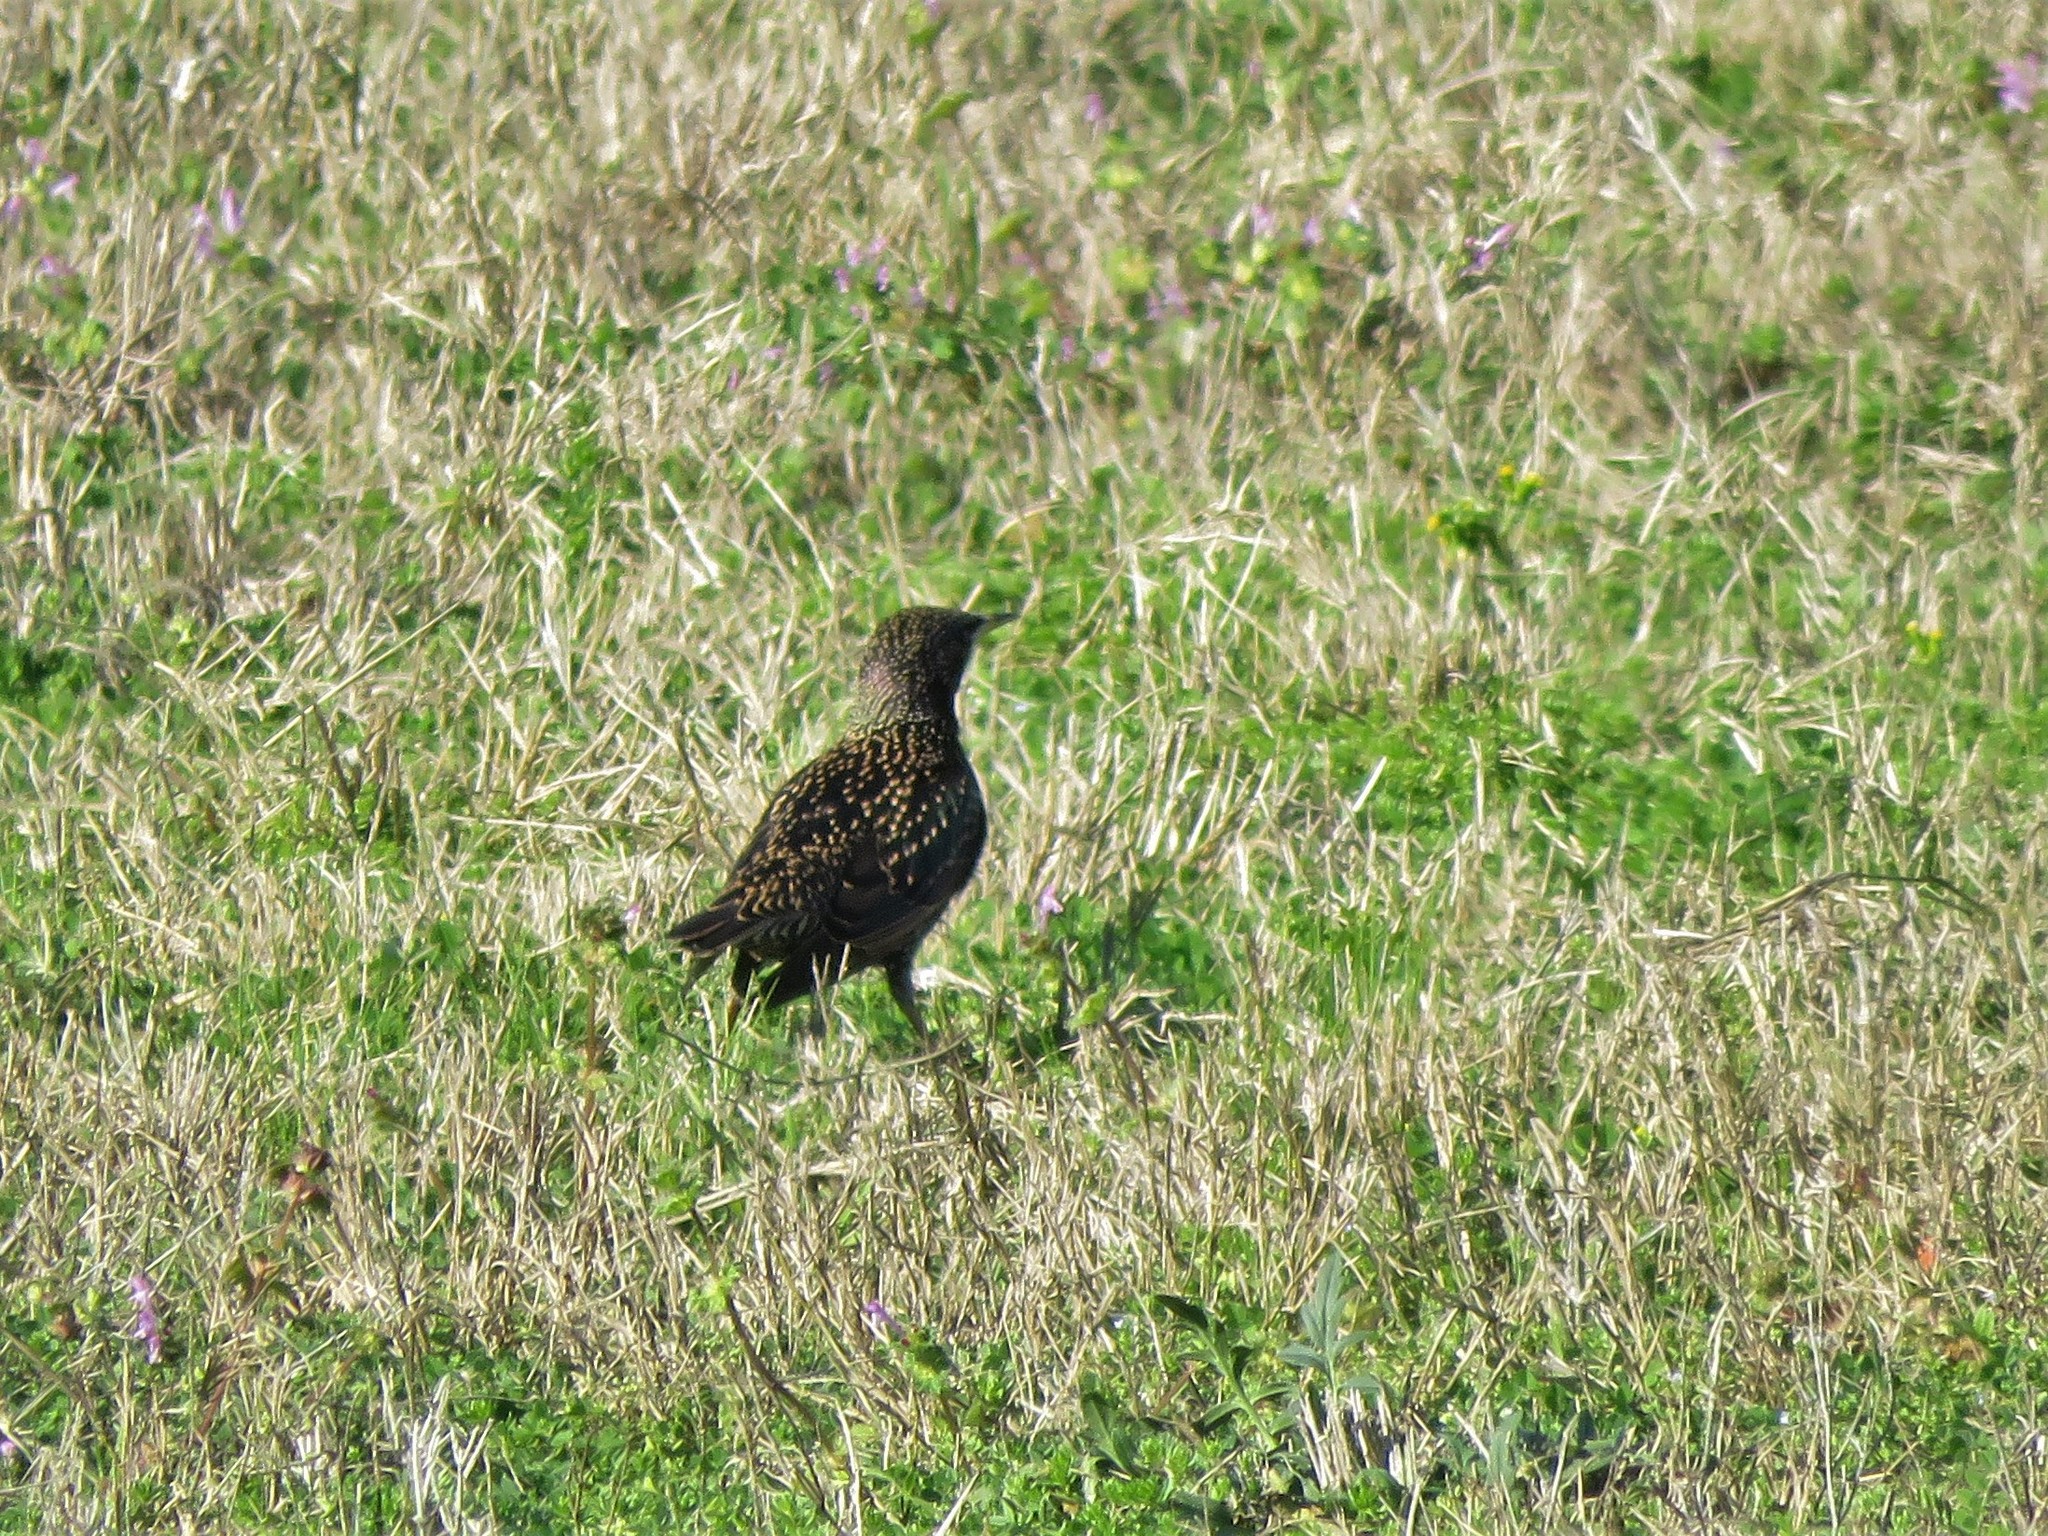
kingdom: Animalia
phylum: Chordata
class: Aves
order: Passeriformes
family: Sturnidae
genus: Sturnus
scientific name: Sturnus vulgaris
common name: Common starling
